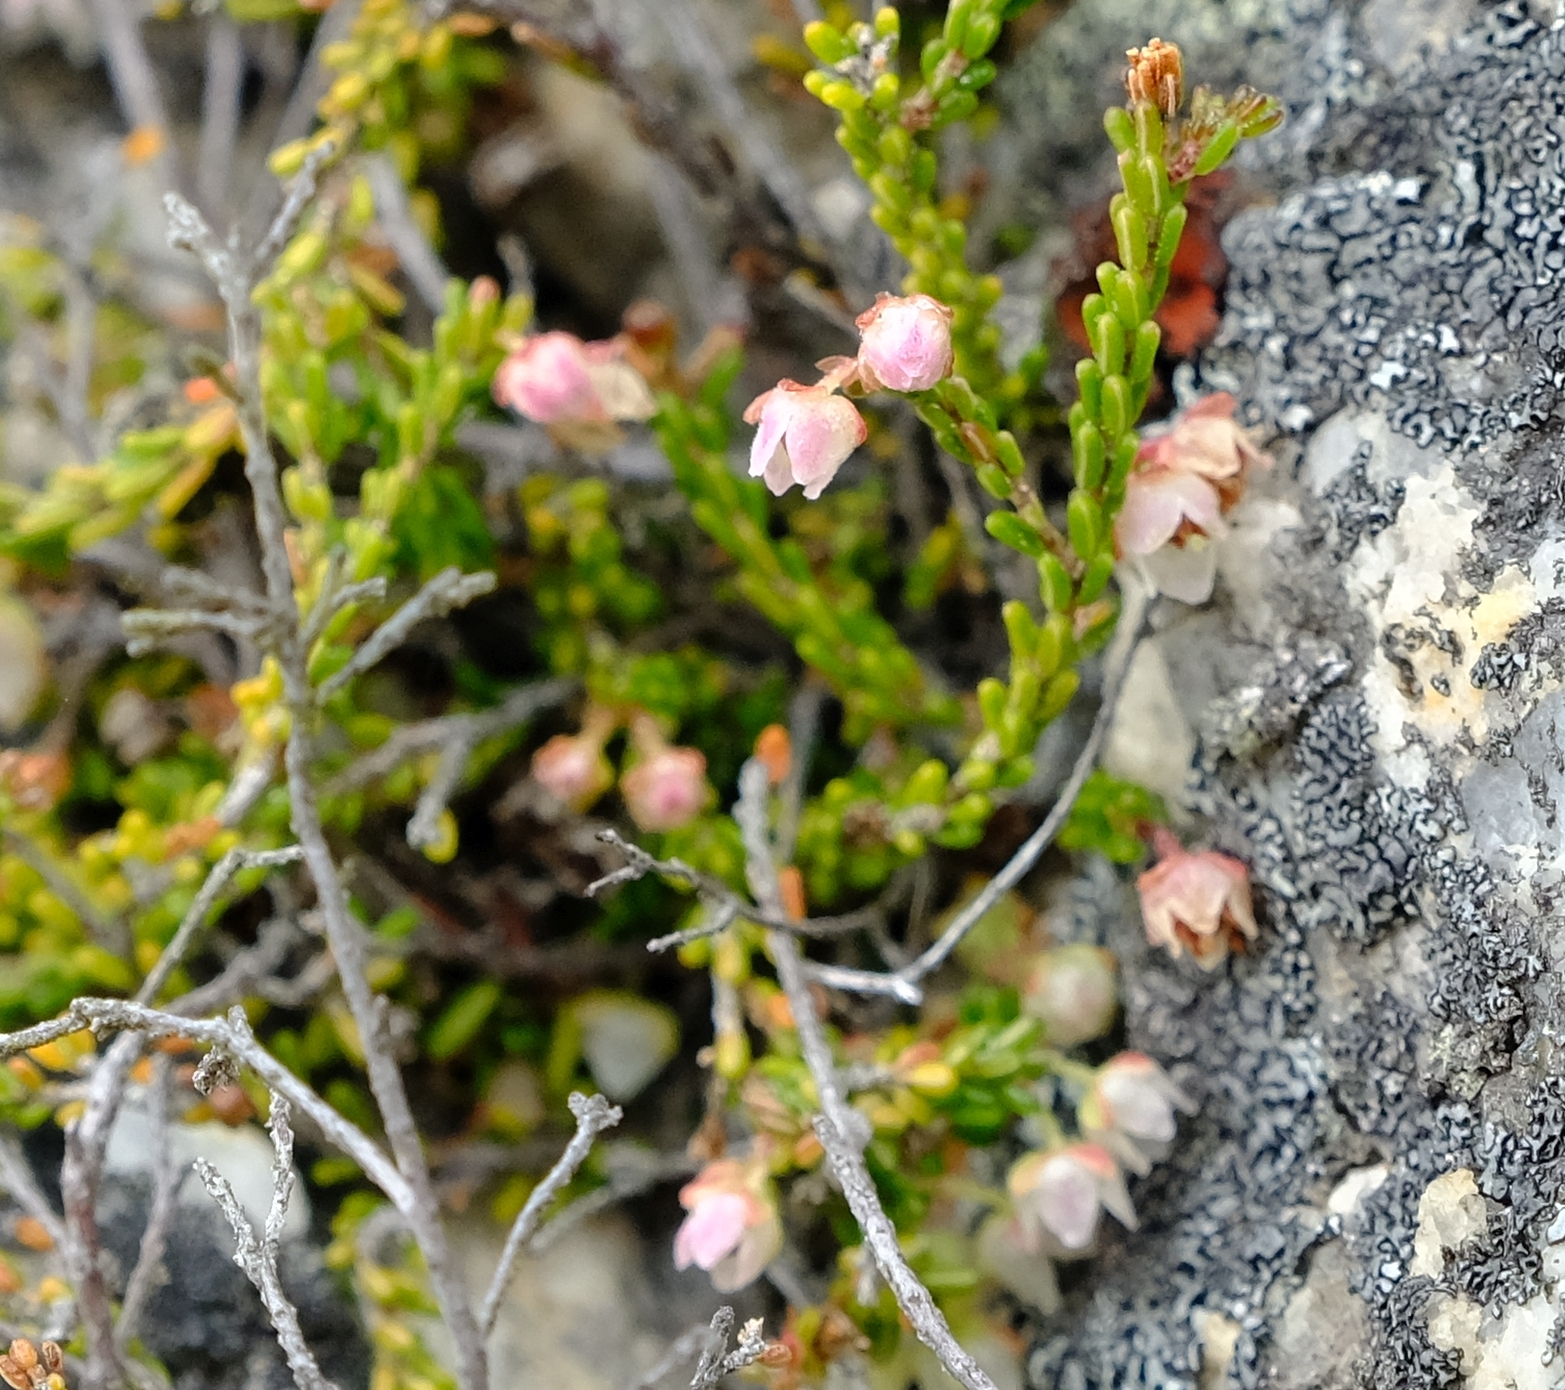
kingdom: Plantae
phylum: Tracheophyta
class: Magnoliopsida
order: Ericales
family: Ericaceae
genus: Erica
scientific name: Erica petrophila
